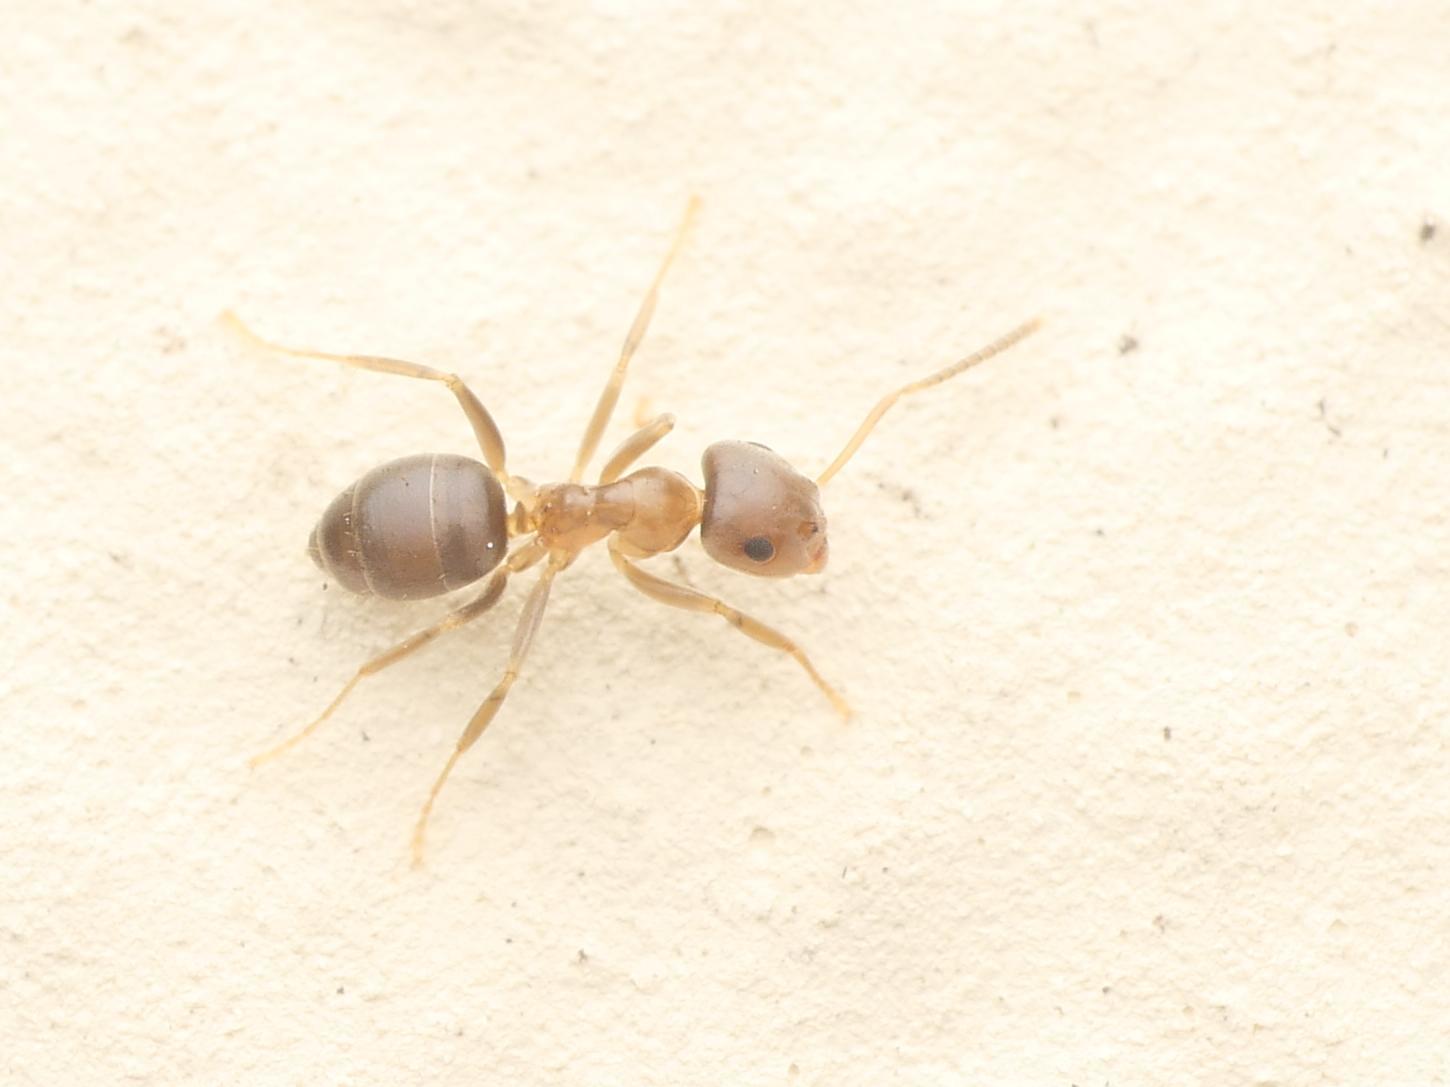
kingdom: Animalia
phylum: Arthropoda
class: Insecta
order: Hymenoptera
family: Formicidae
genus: Lasius
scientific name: Lasius brunneus
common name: Brown ant
